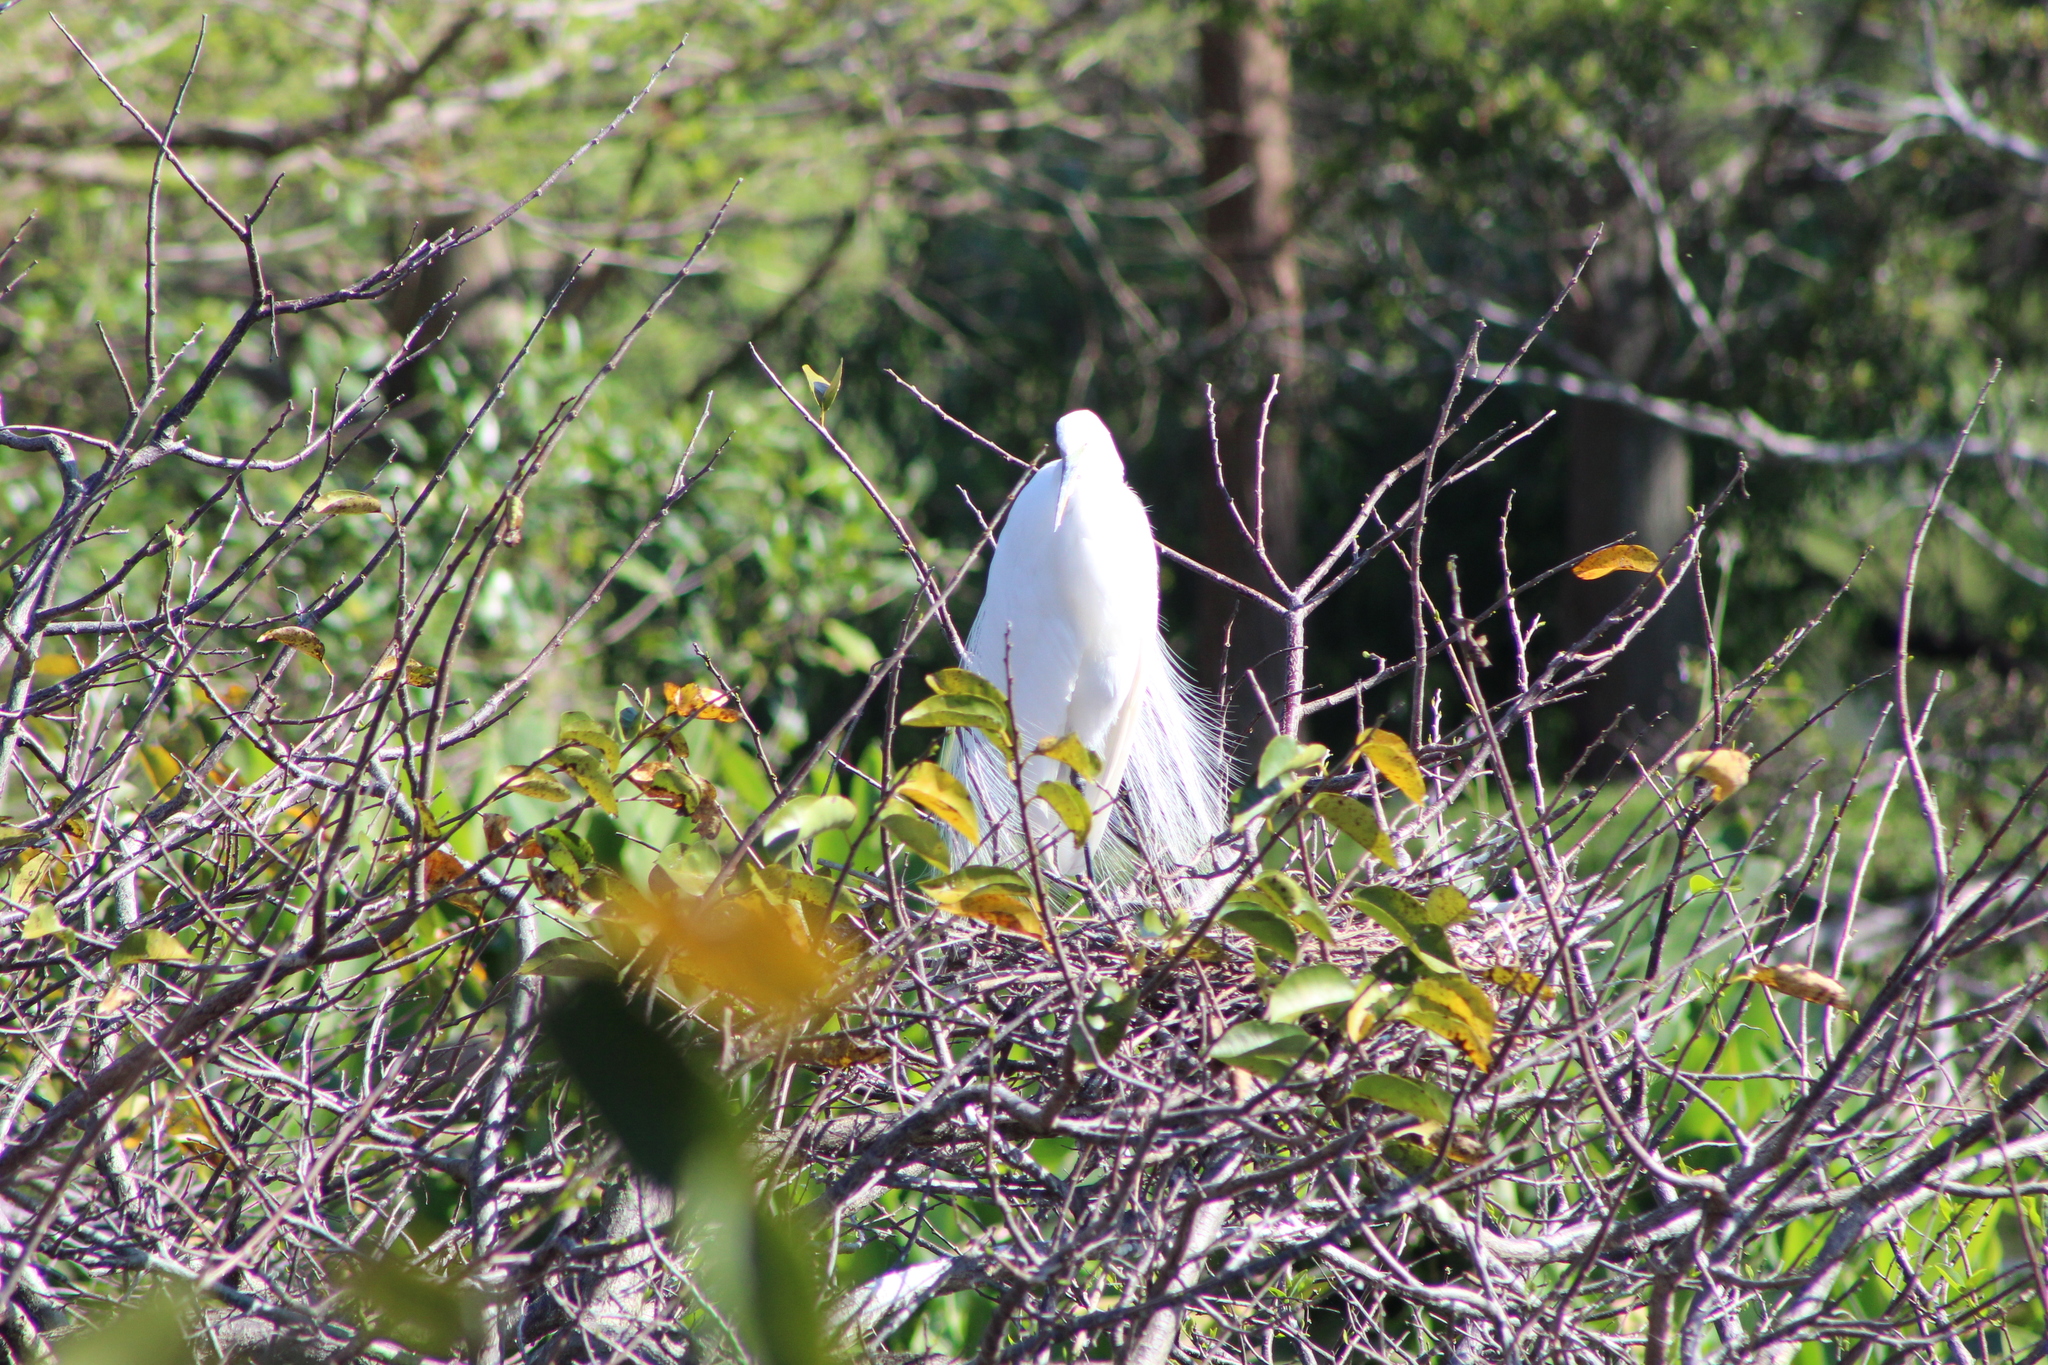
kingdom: Animalia
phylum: Chordata
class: Aves
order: Pelecaniformes
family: Ardeidae
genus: Ardea
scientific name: Ardea alba
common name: Great egret
